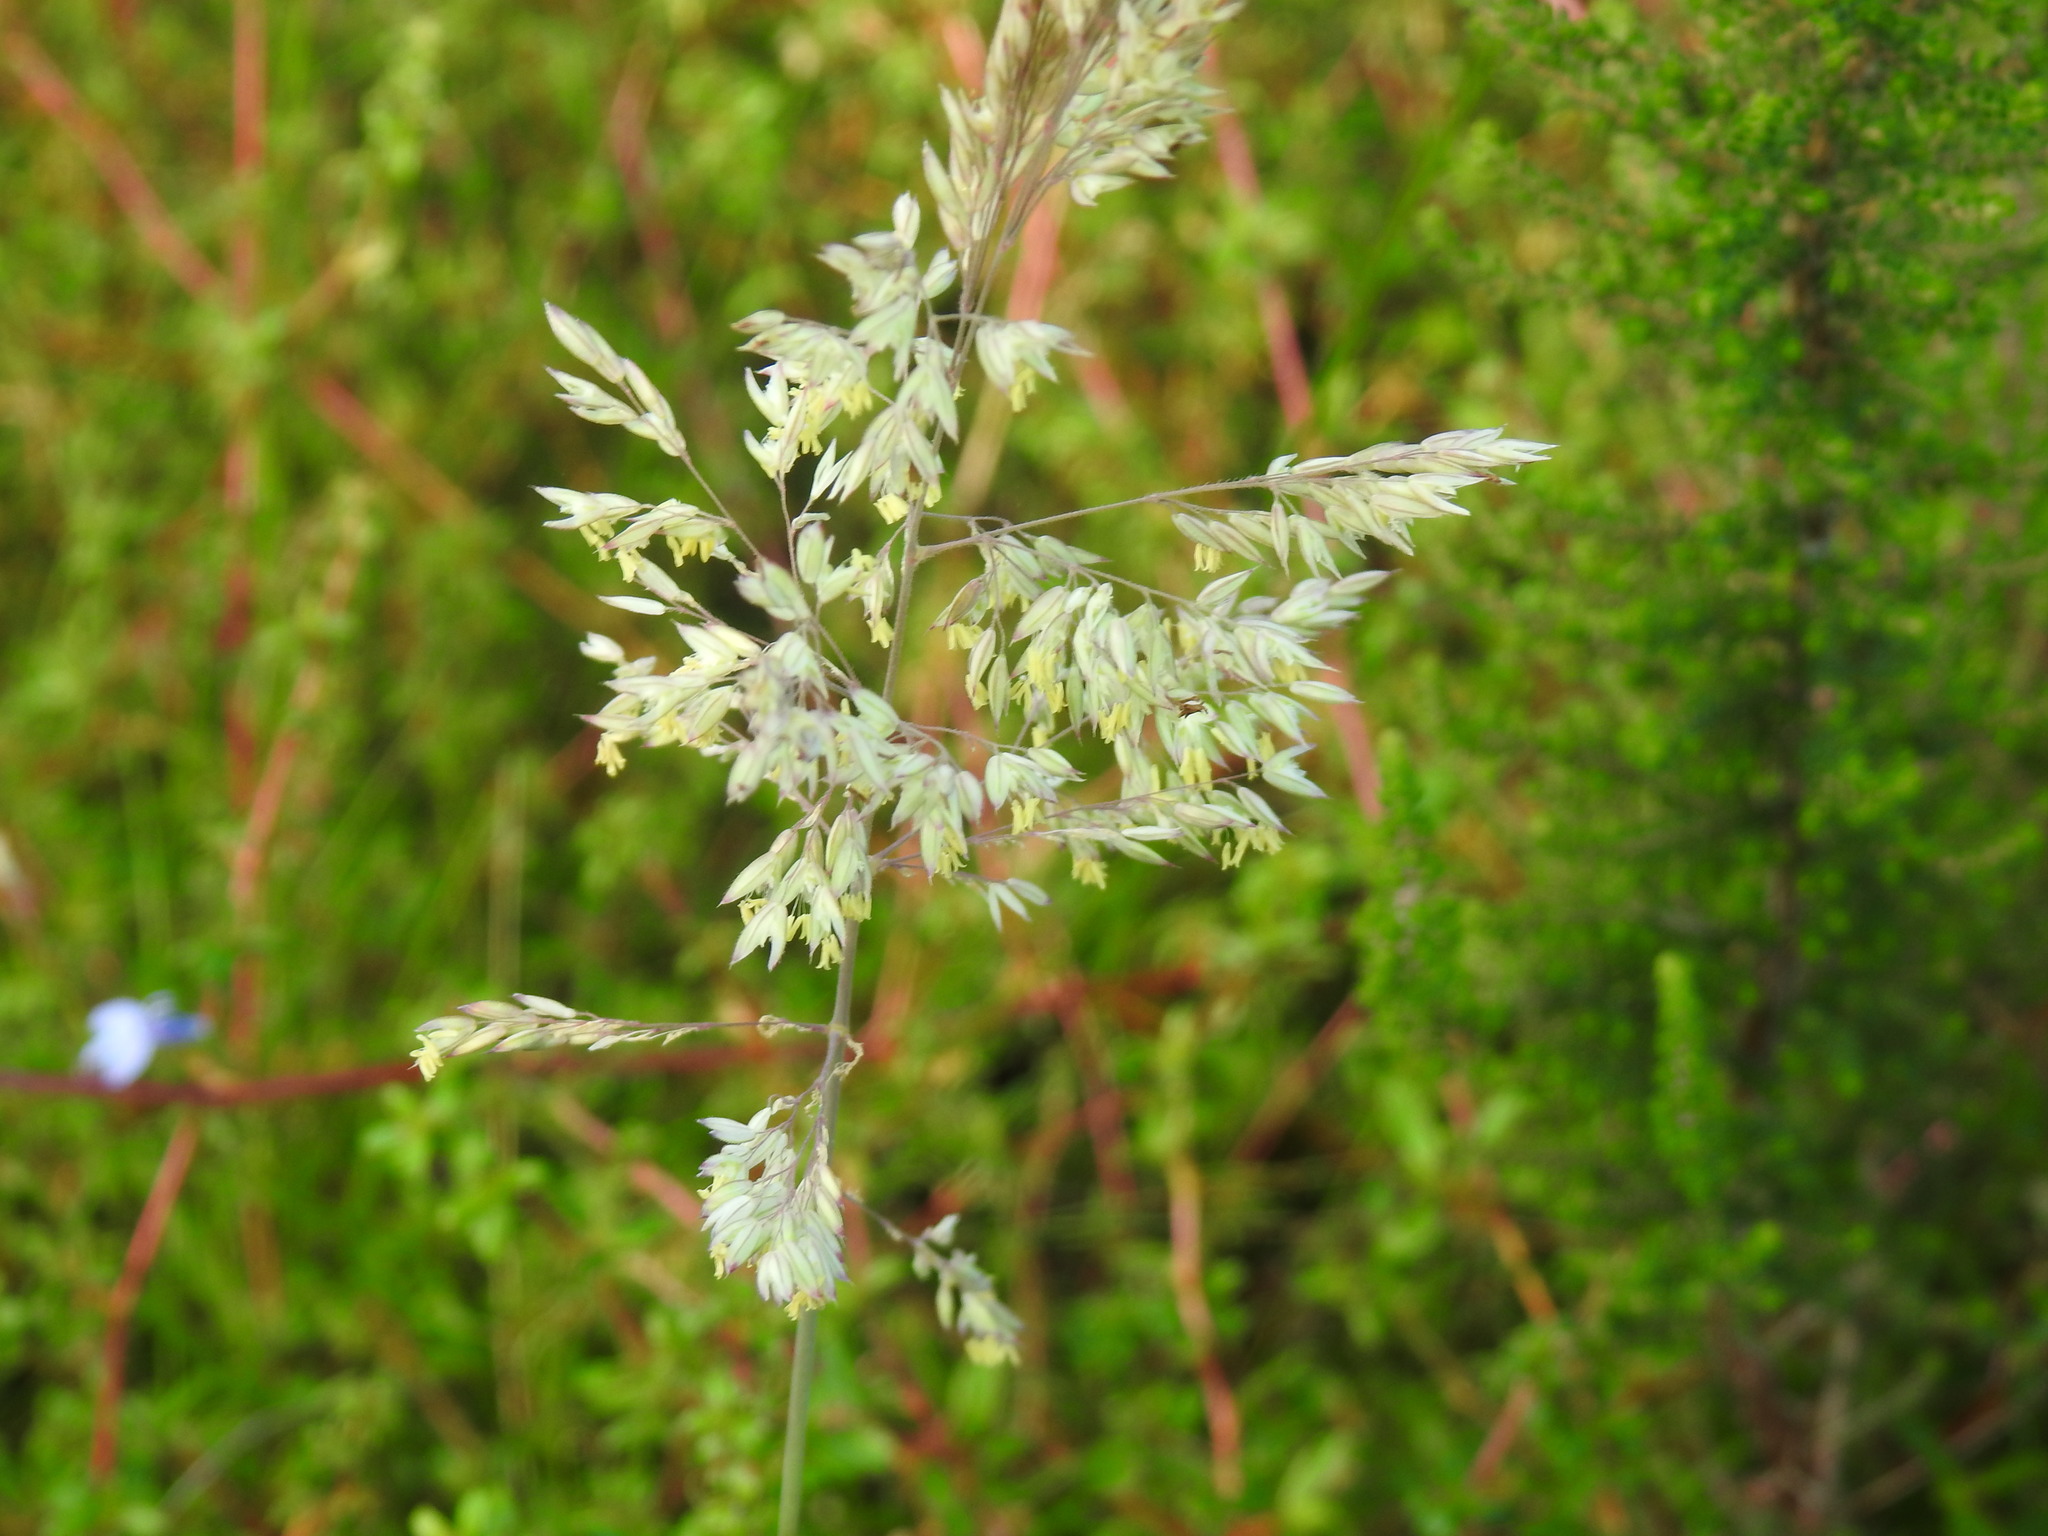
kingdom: Plantae
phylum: Tracheophyta
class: Liliopsida
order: Poales
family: Poaceae
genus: Holcus
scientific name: Holcus lanatus
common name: Yorkshire-fog
